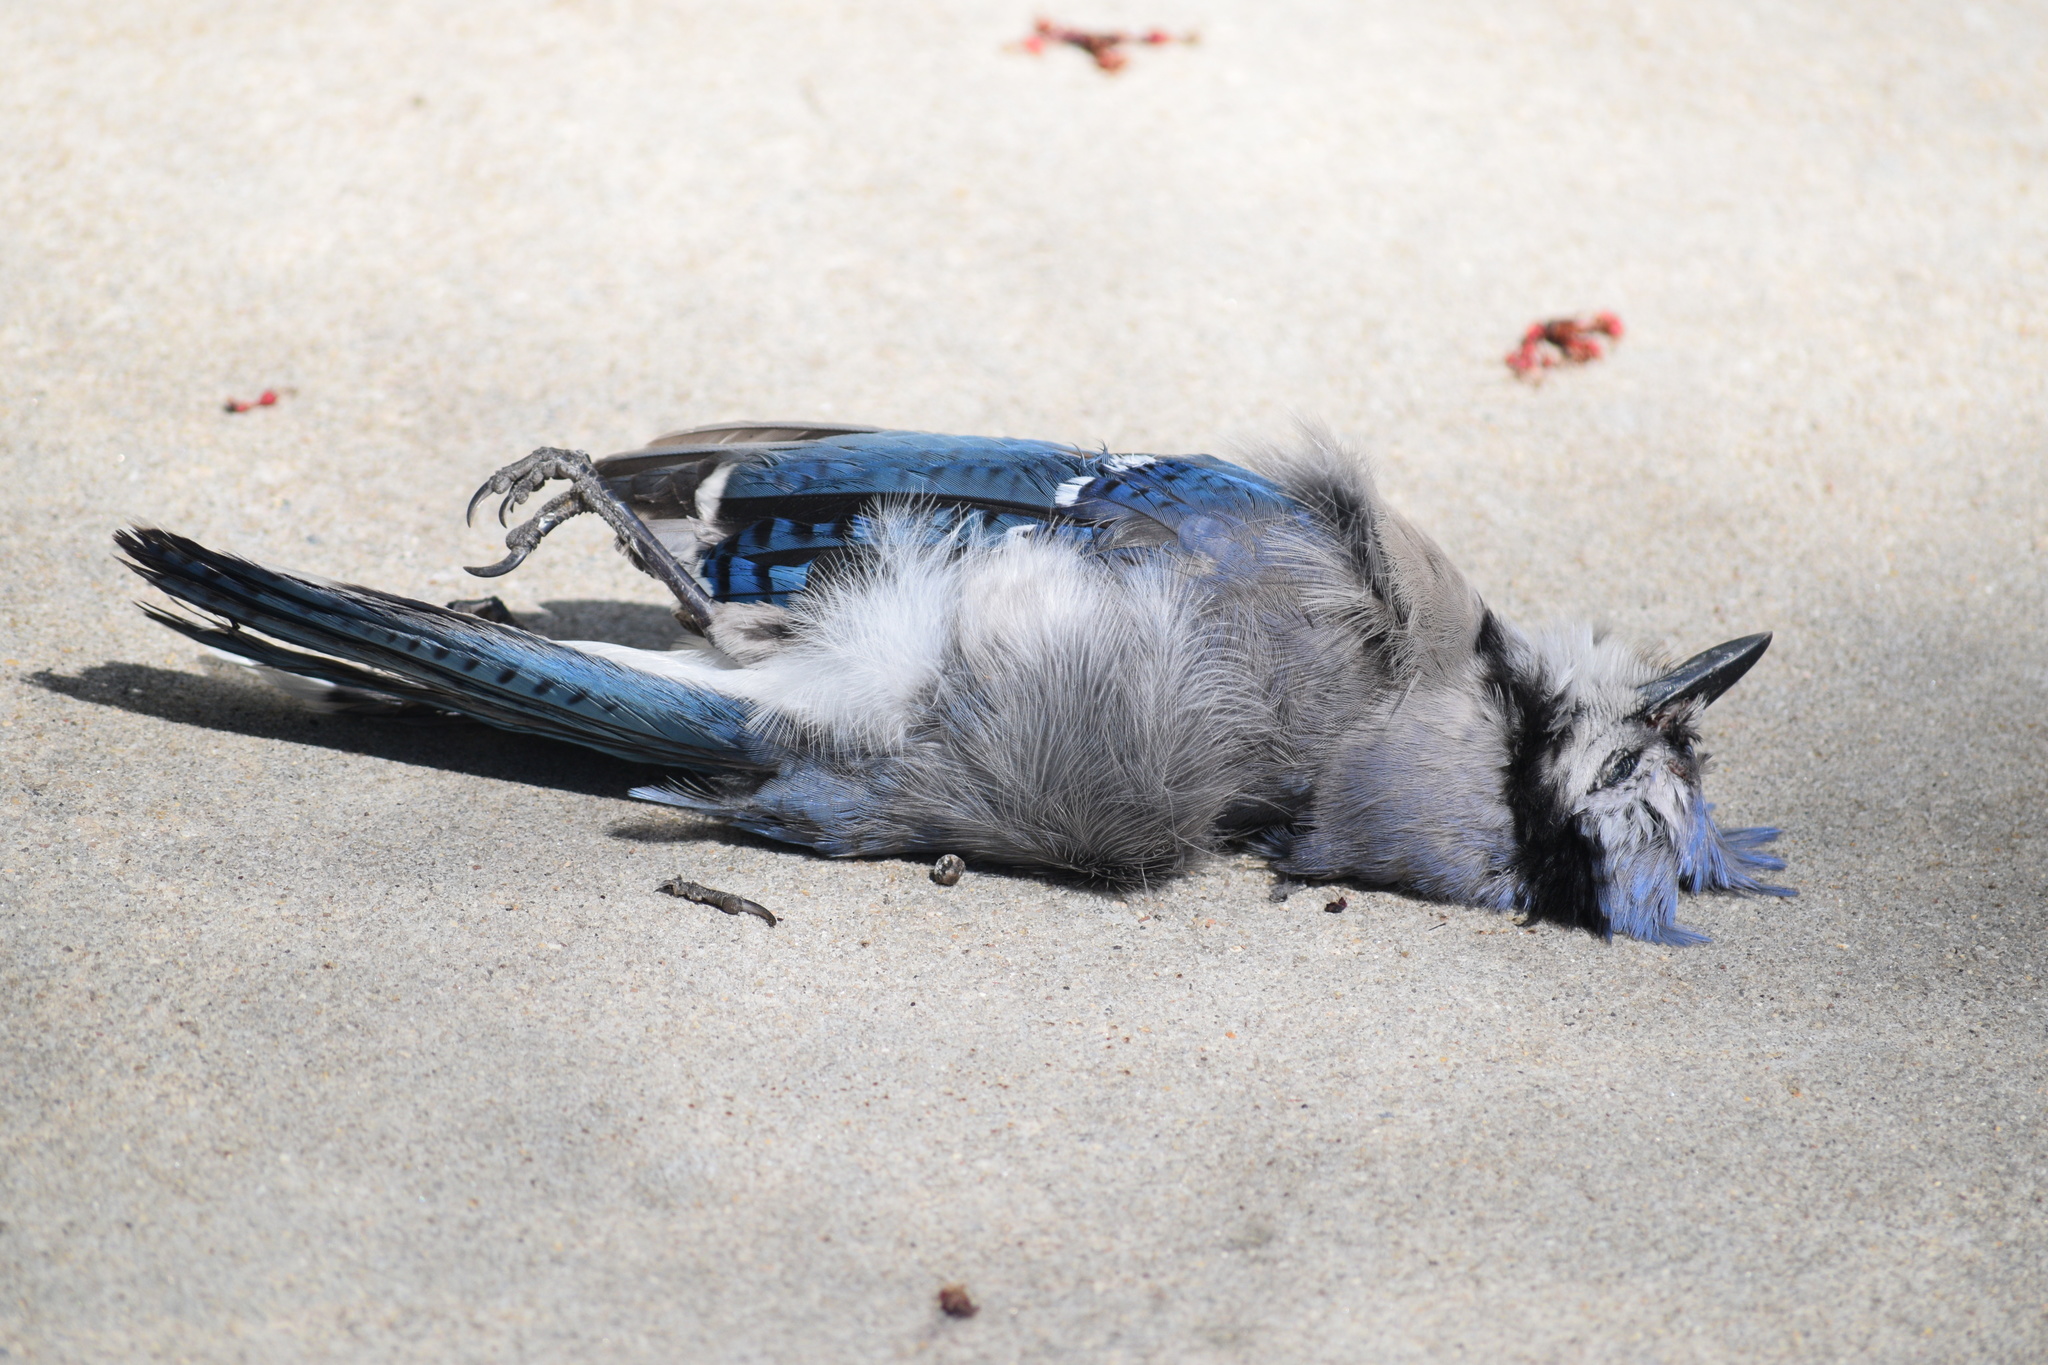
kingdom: Animalia
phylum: Chordata
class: Aves
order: Passeriformes
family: Corvidae
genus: Cyanocitta
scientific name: Cyanocitta cristata
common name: Blue jay
